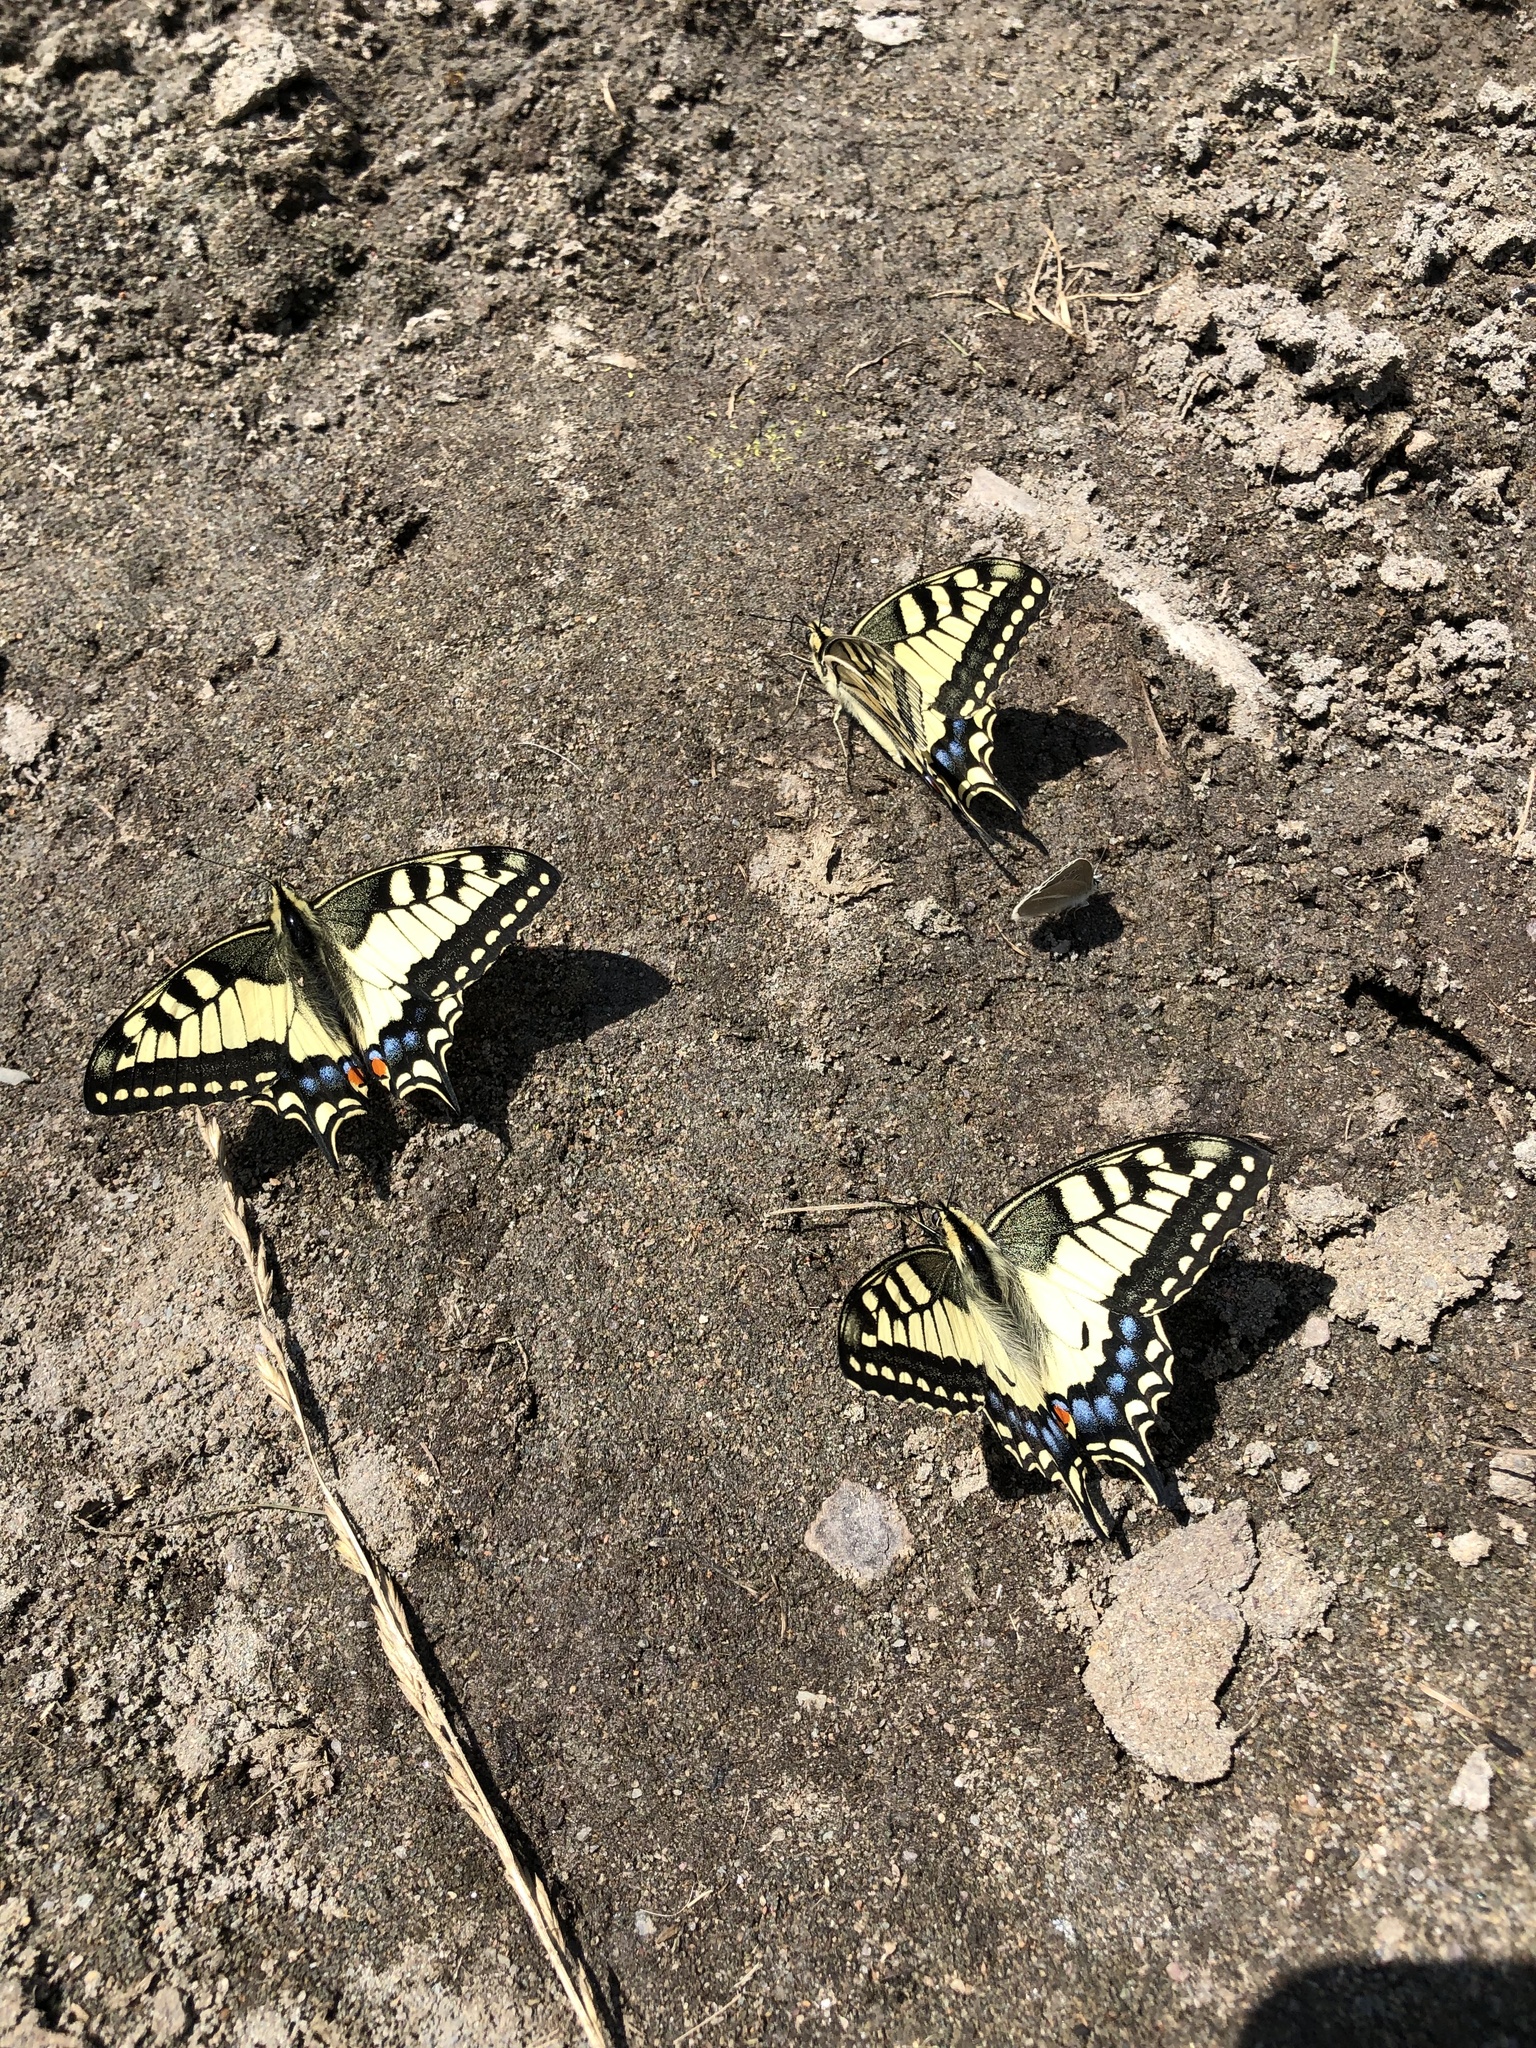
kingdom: Animalia
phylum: Arthropoda
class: Insecta
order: Lepidoptera
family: Papilionidae
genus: Papilio
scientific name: Papilio machaon
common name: Swallowtail
